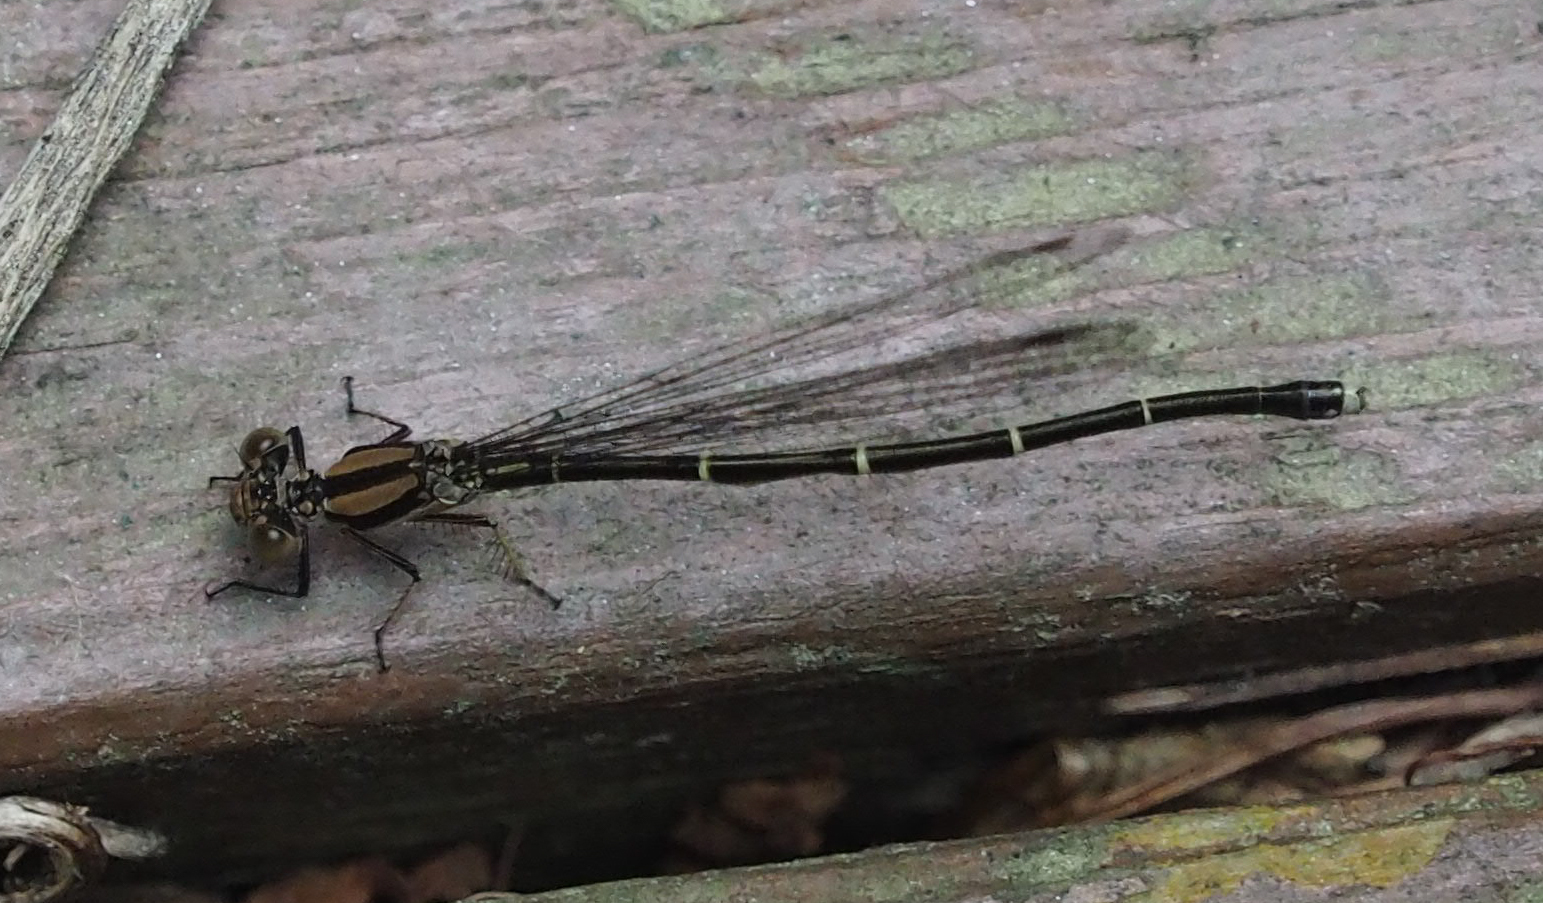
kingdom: Animalia
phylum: Arthropoda
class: Insecta
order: Odonata
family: Coenagrionidae
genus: Argia
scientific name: Argia tibialis
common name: Blue-tipped dancer
